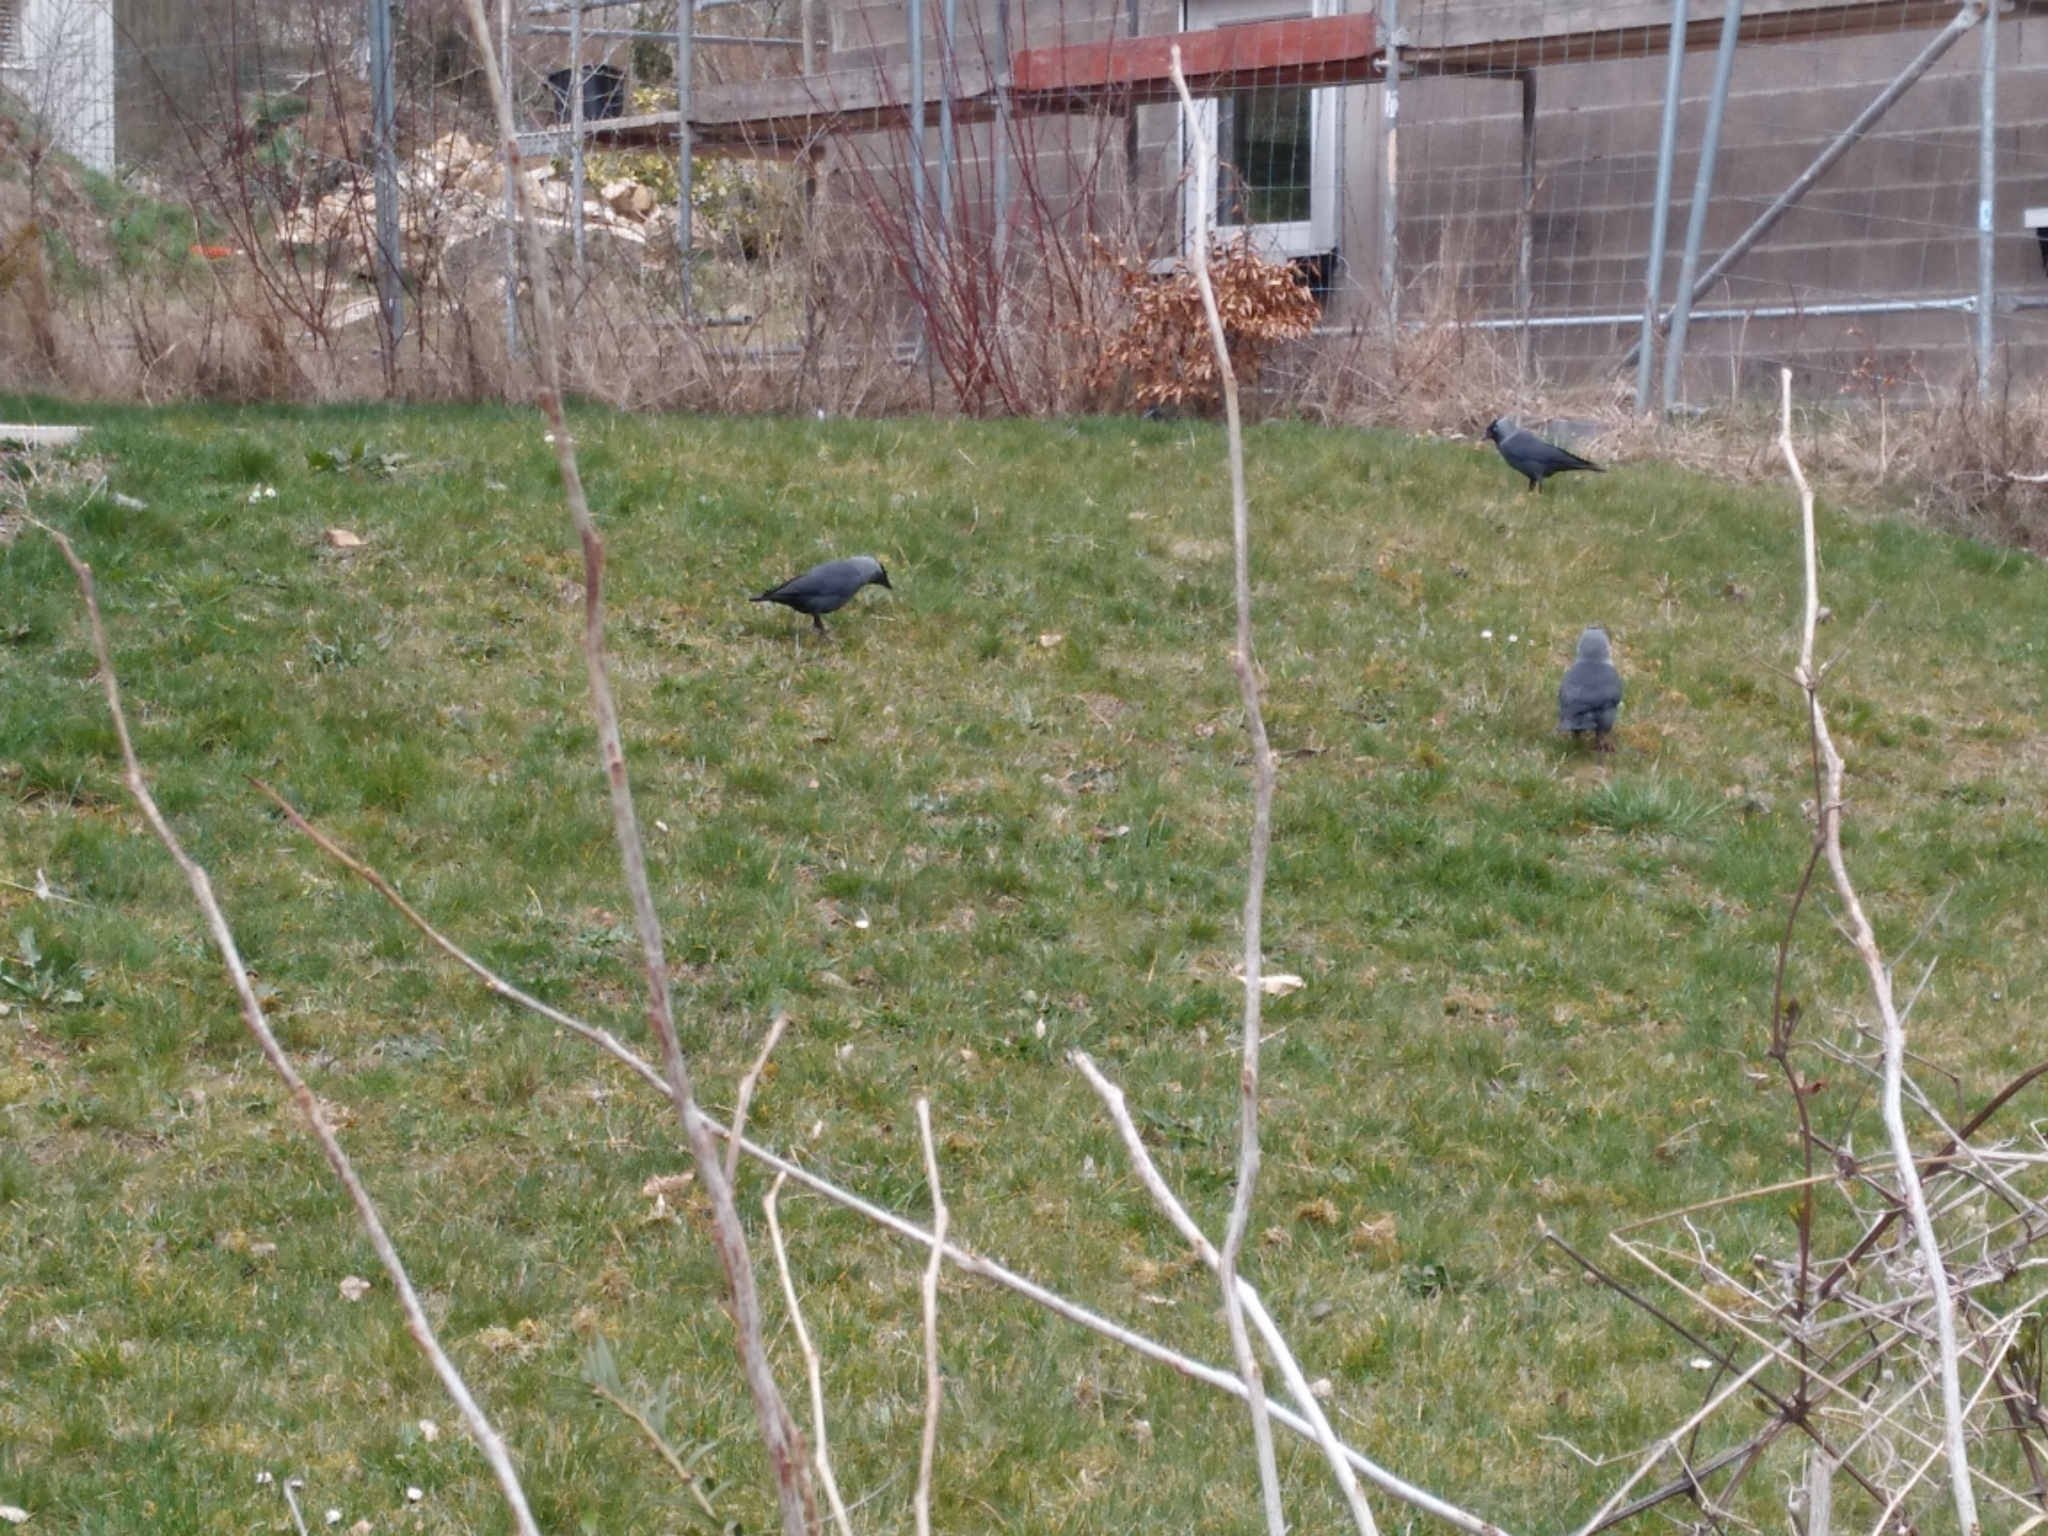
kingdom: Animalia
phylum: Chordata
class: Aves
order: Passeriformes
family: Corvidae
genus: Coloeus
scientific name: Coloeus monedula
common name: Western jackdaw
